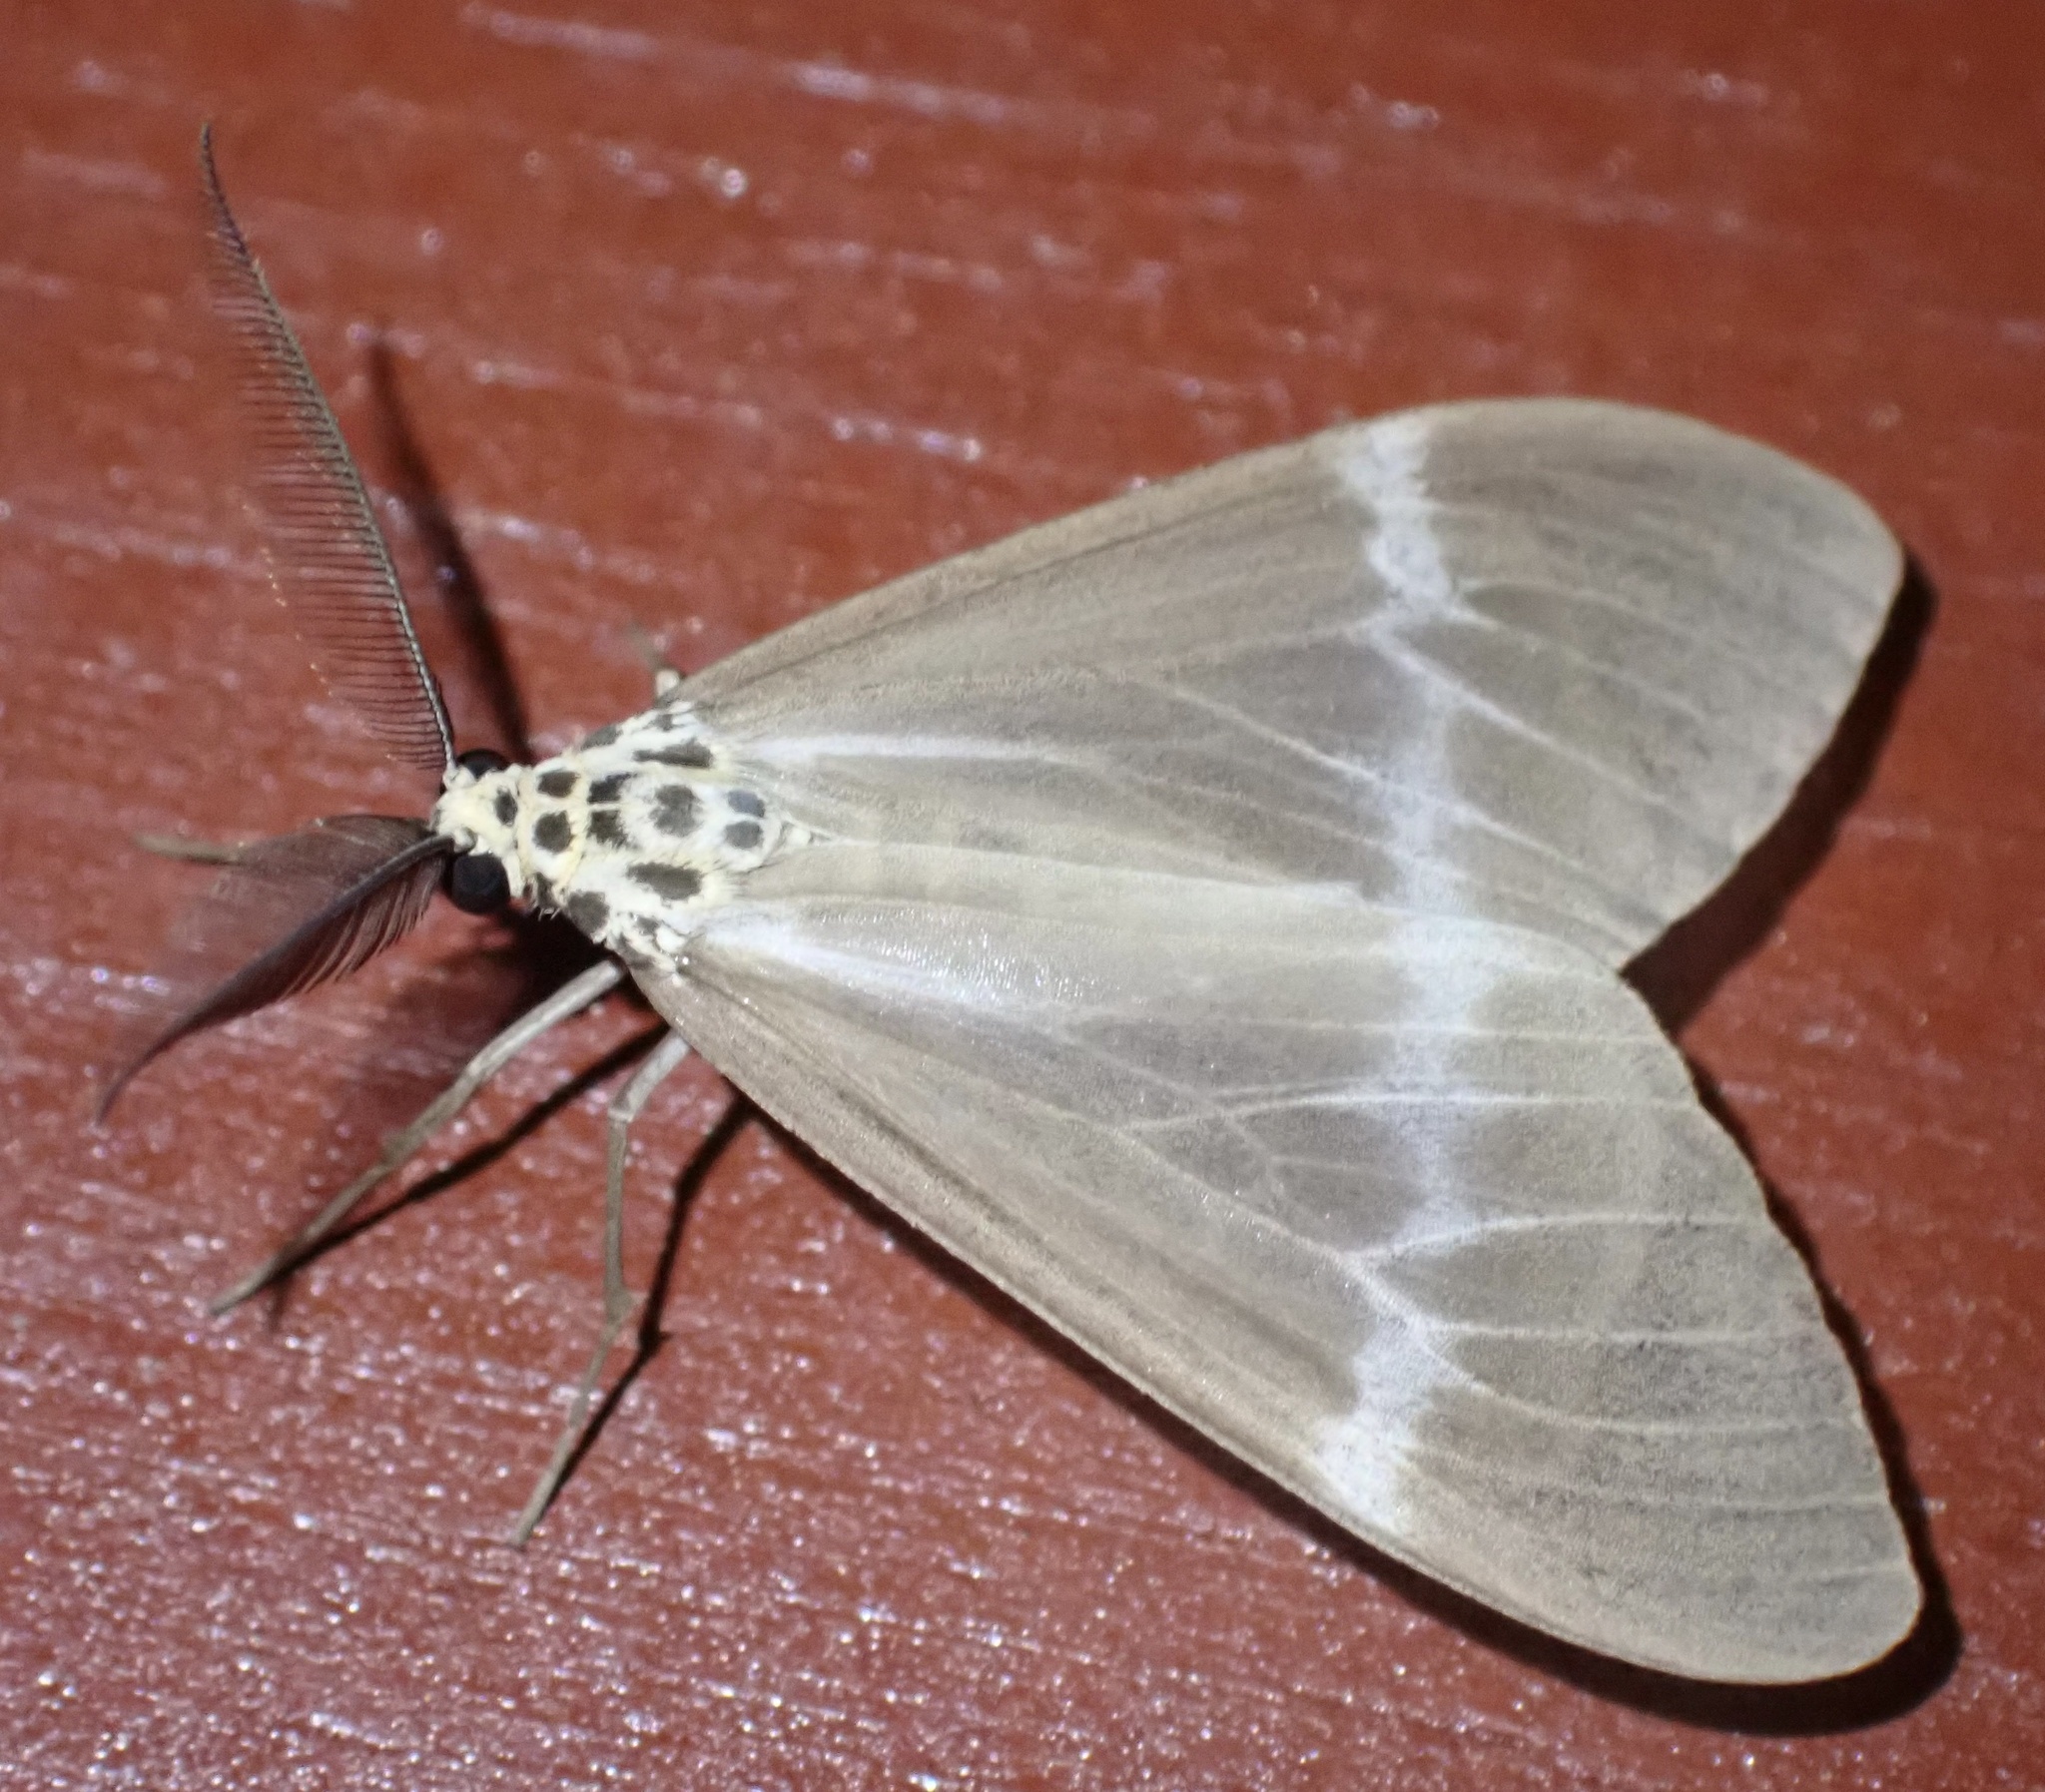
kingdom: Animalia
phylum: Arthropoda
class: Insecta
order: Lepidoptera
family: Erebidae
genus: Nyctemera
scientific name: Nyctemera hyalina
